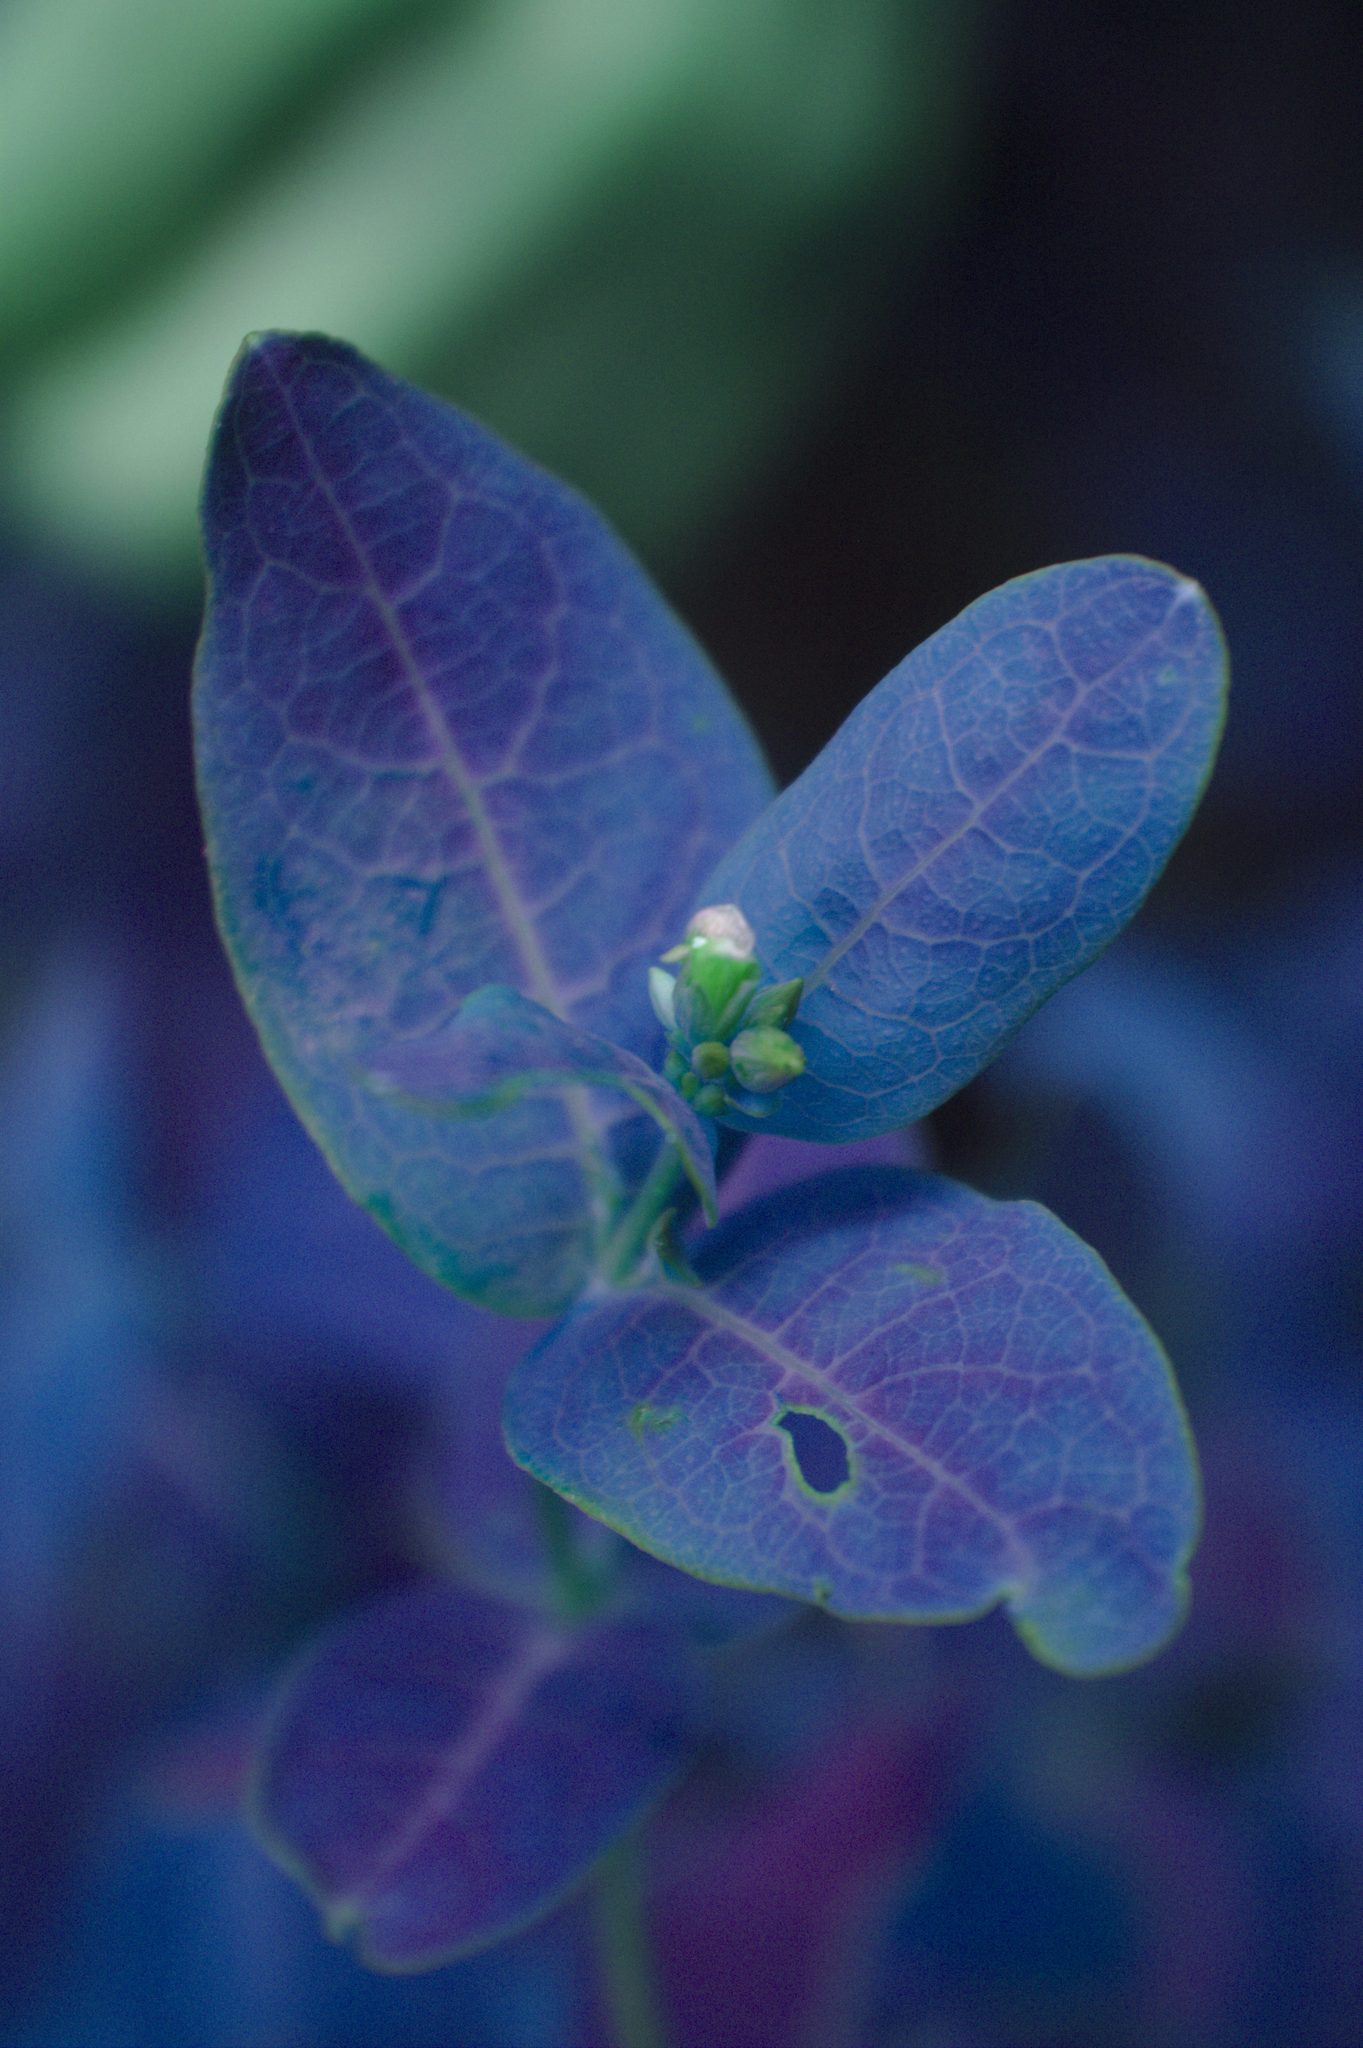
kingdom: Plantae
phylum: Tracheophyta
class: Magnoliopsida
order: Malpighiales
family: Hypericaceae
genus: Triadenum
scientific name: Triadenum fraseri
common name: Fraser's marsh st. johnswort
